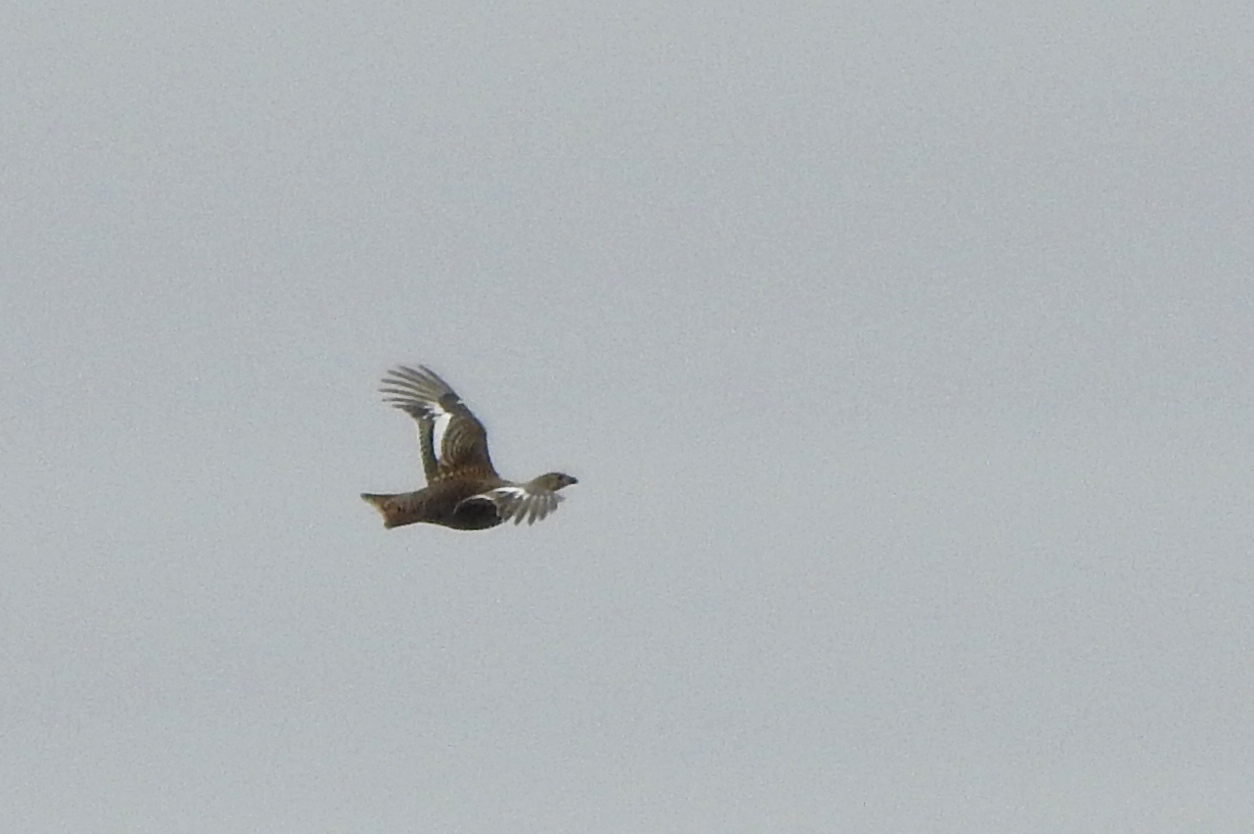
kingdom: Animalia
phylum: Chordata
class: Aves
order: Galliformes
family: Phasianidae
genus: Lyrurus
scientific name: Lyrurus tetrix
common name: Black grouse
